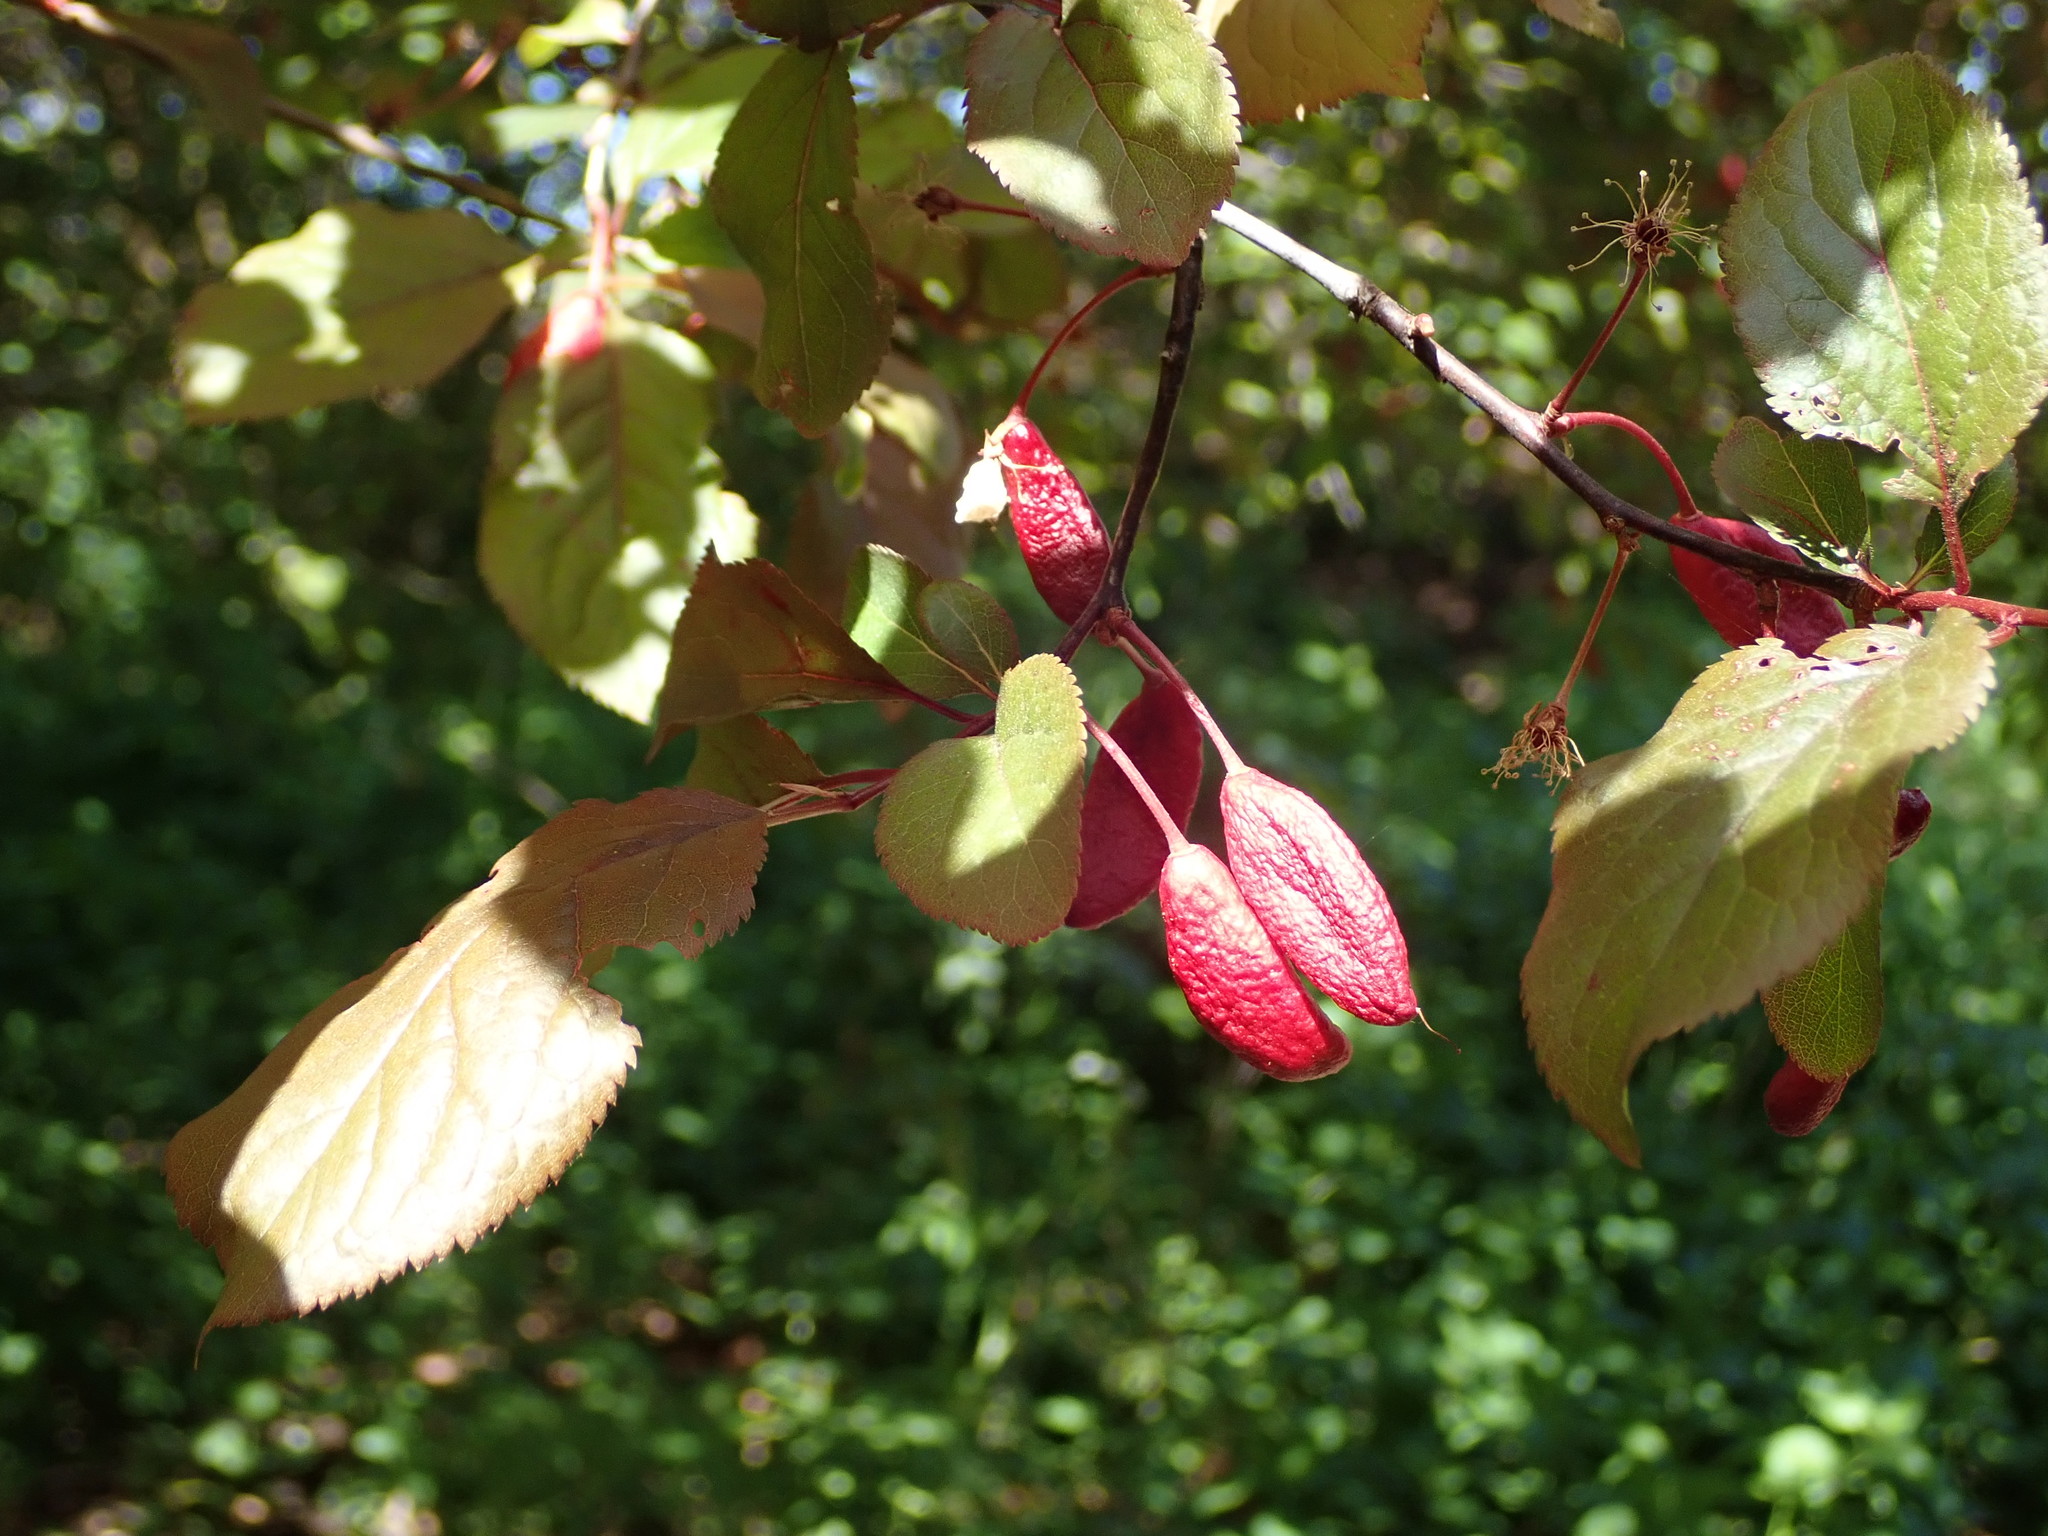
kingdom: Fungi
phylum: Ascomycota
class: Taphrinomycetes
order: Taphrinales
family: Taphrinaceae
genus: Taphrina
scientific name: Taphrina pruni
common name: Pocket plum
